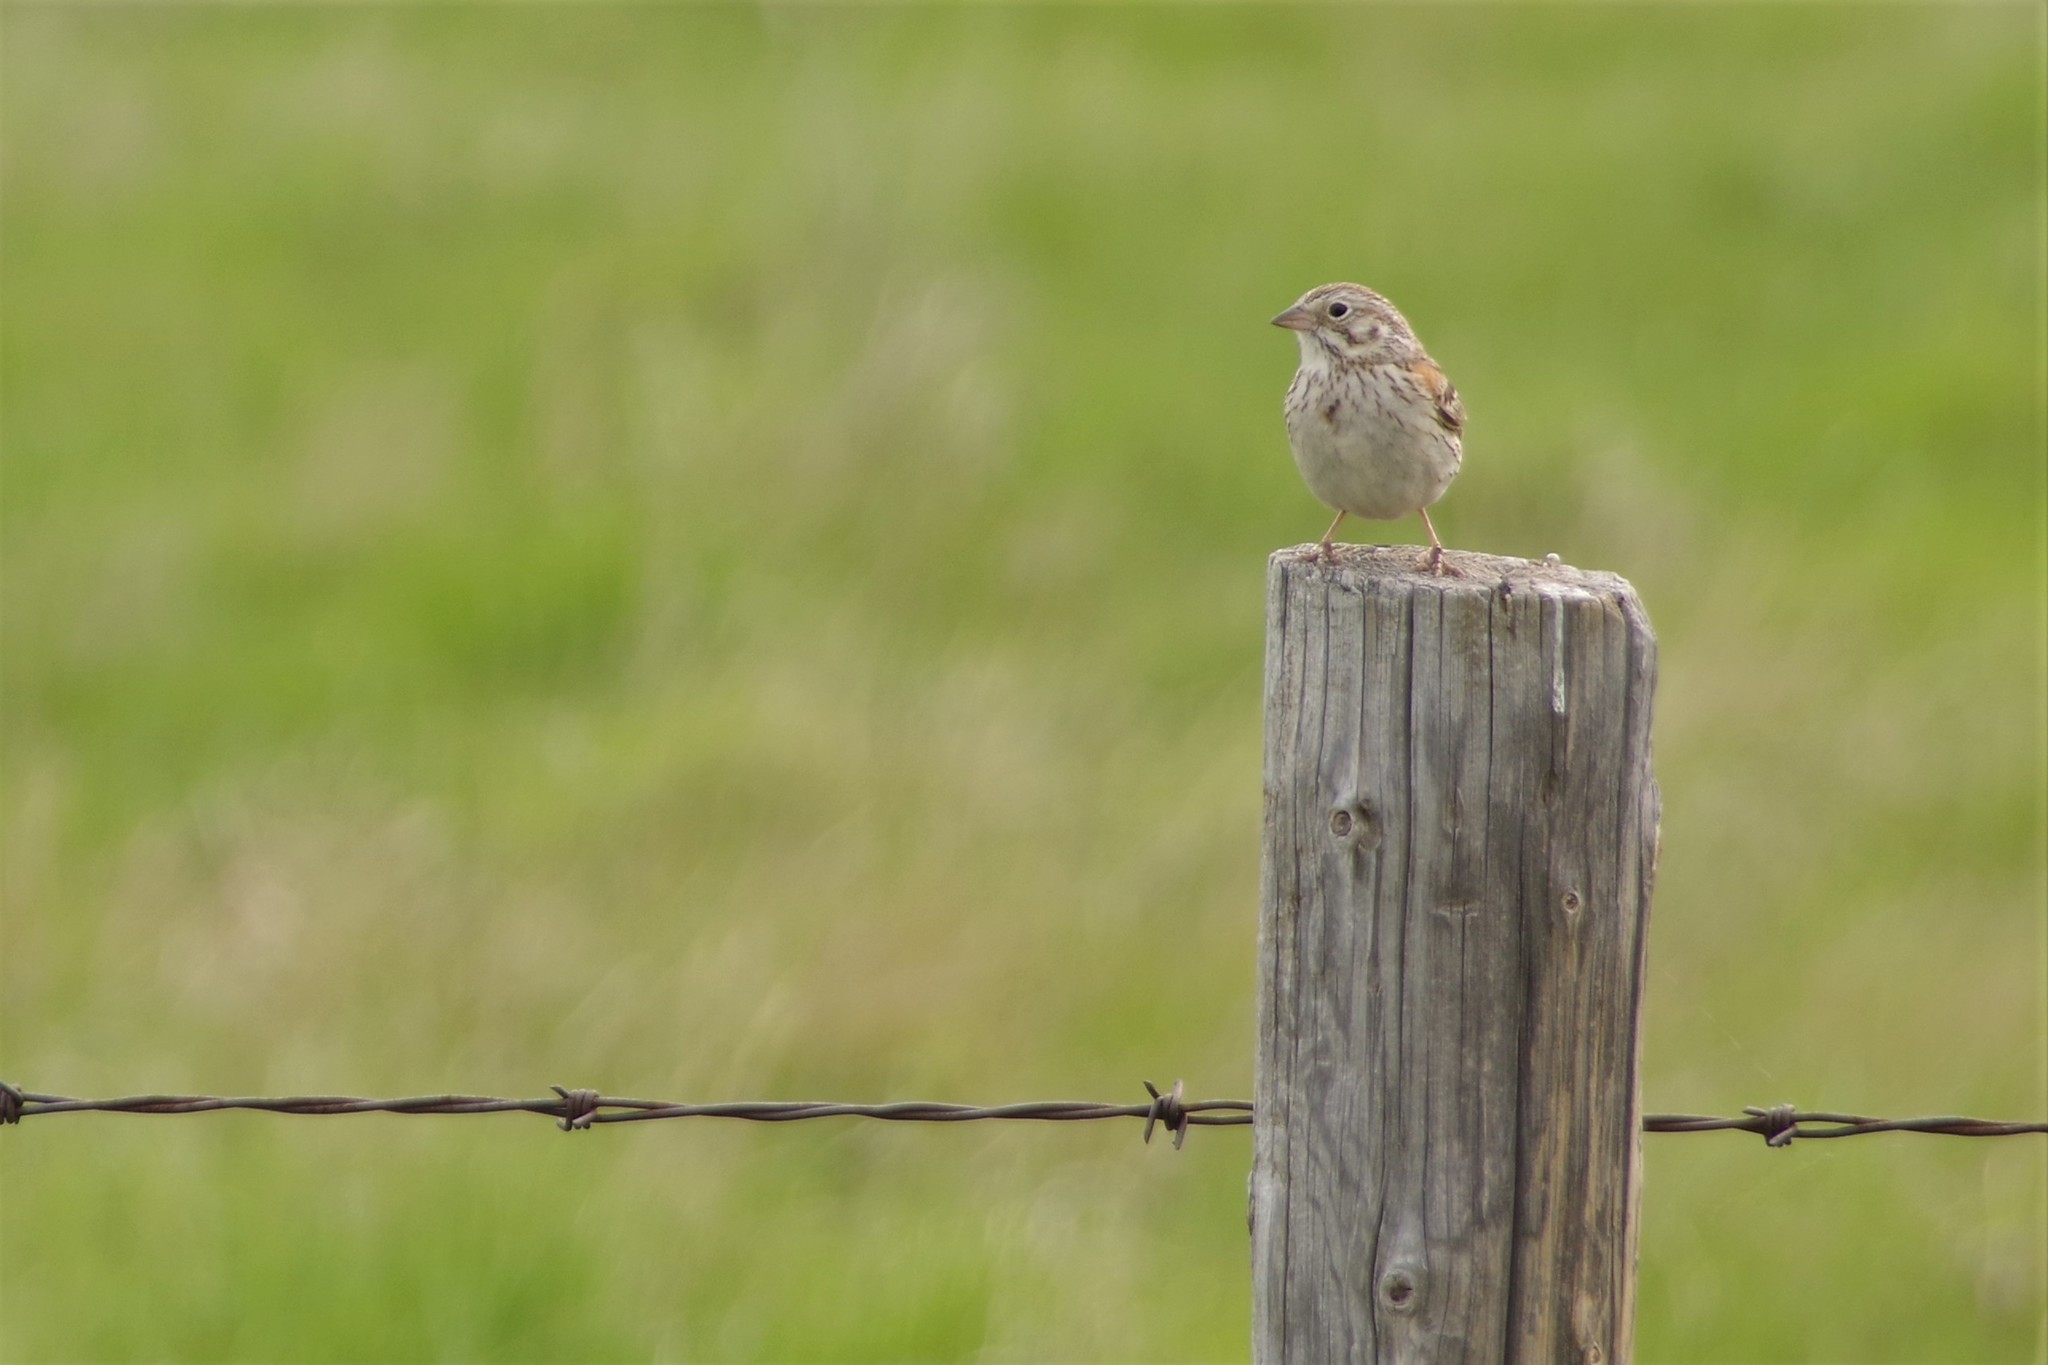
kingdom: Animalia
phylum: Chordata
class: Aves
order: Passeriformes
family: Passerellidae
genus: Pooecetes
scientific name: Pooecetes gramineus
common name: Vesper sparrow
